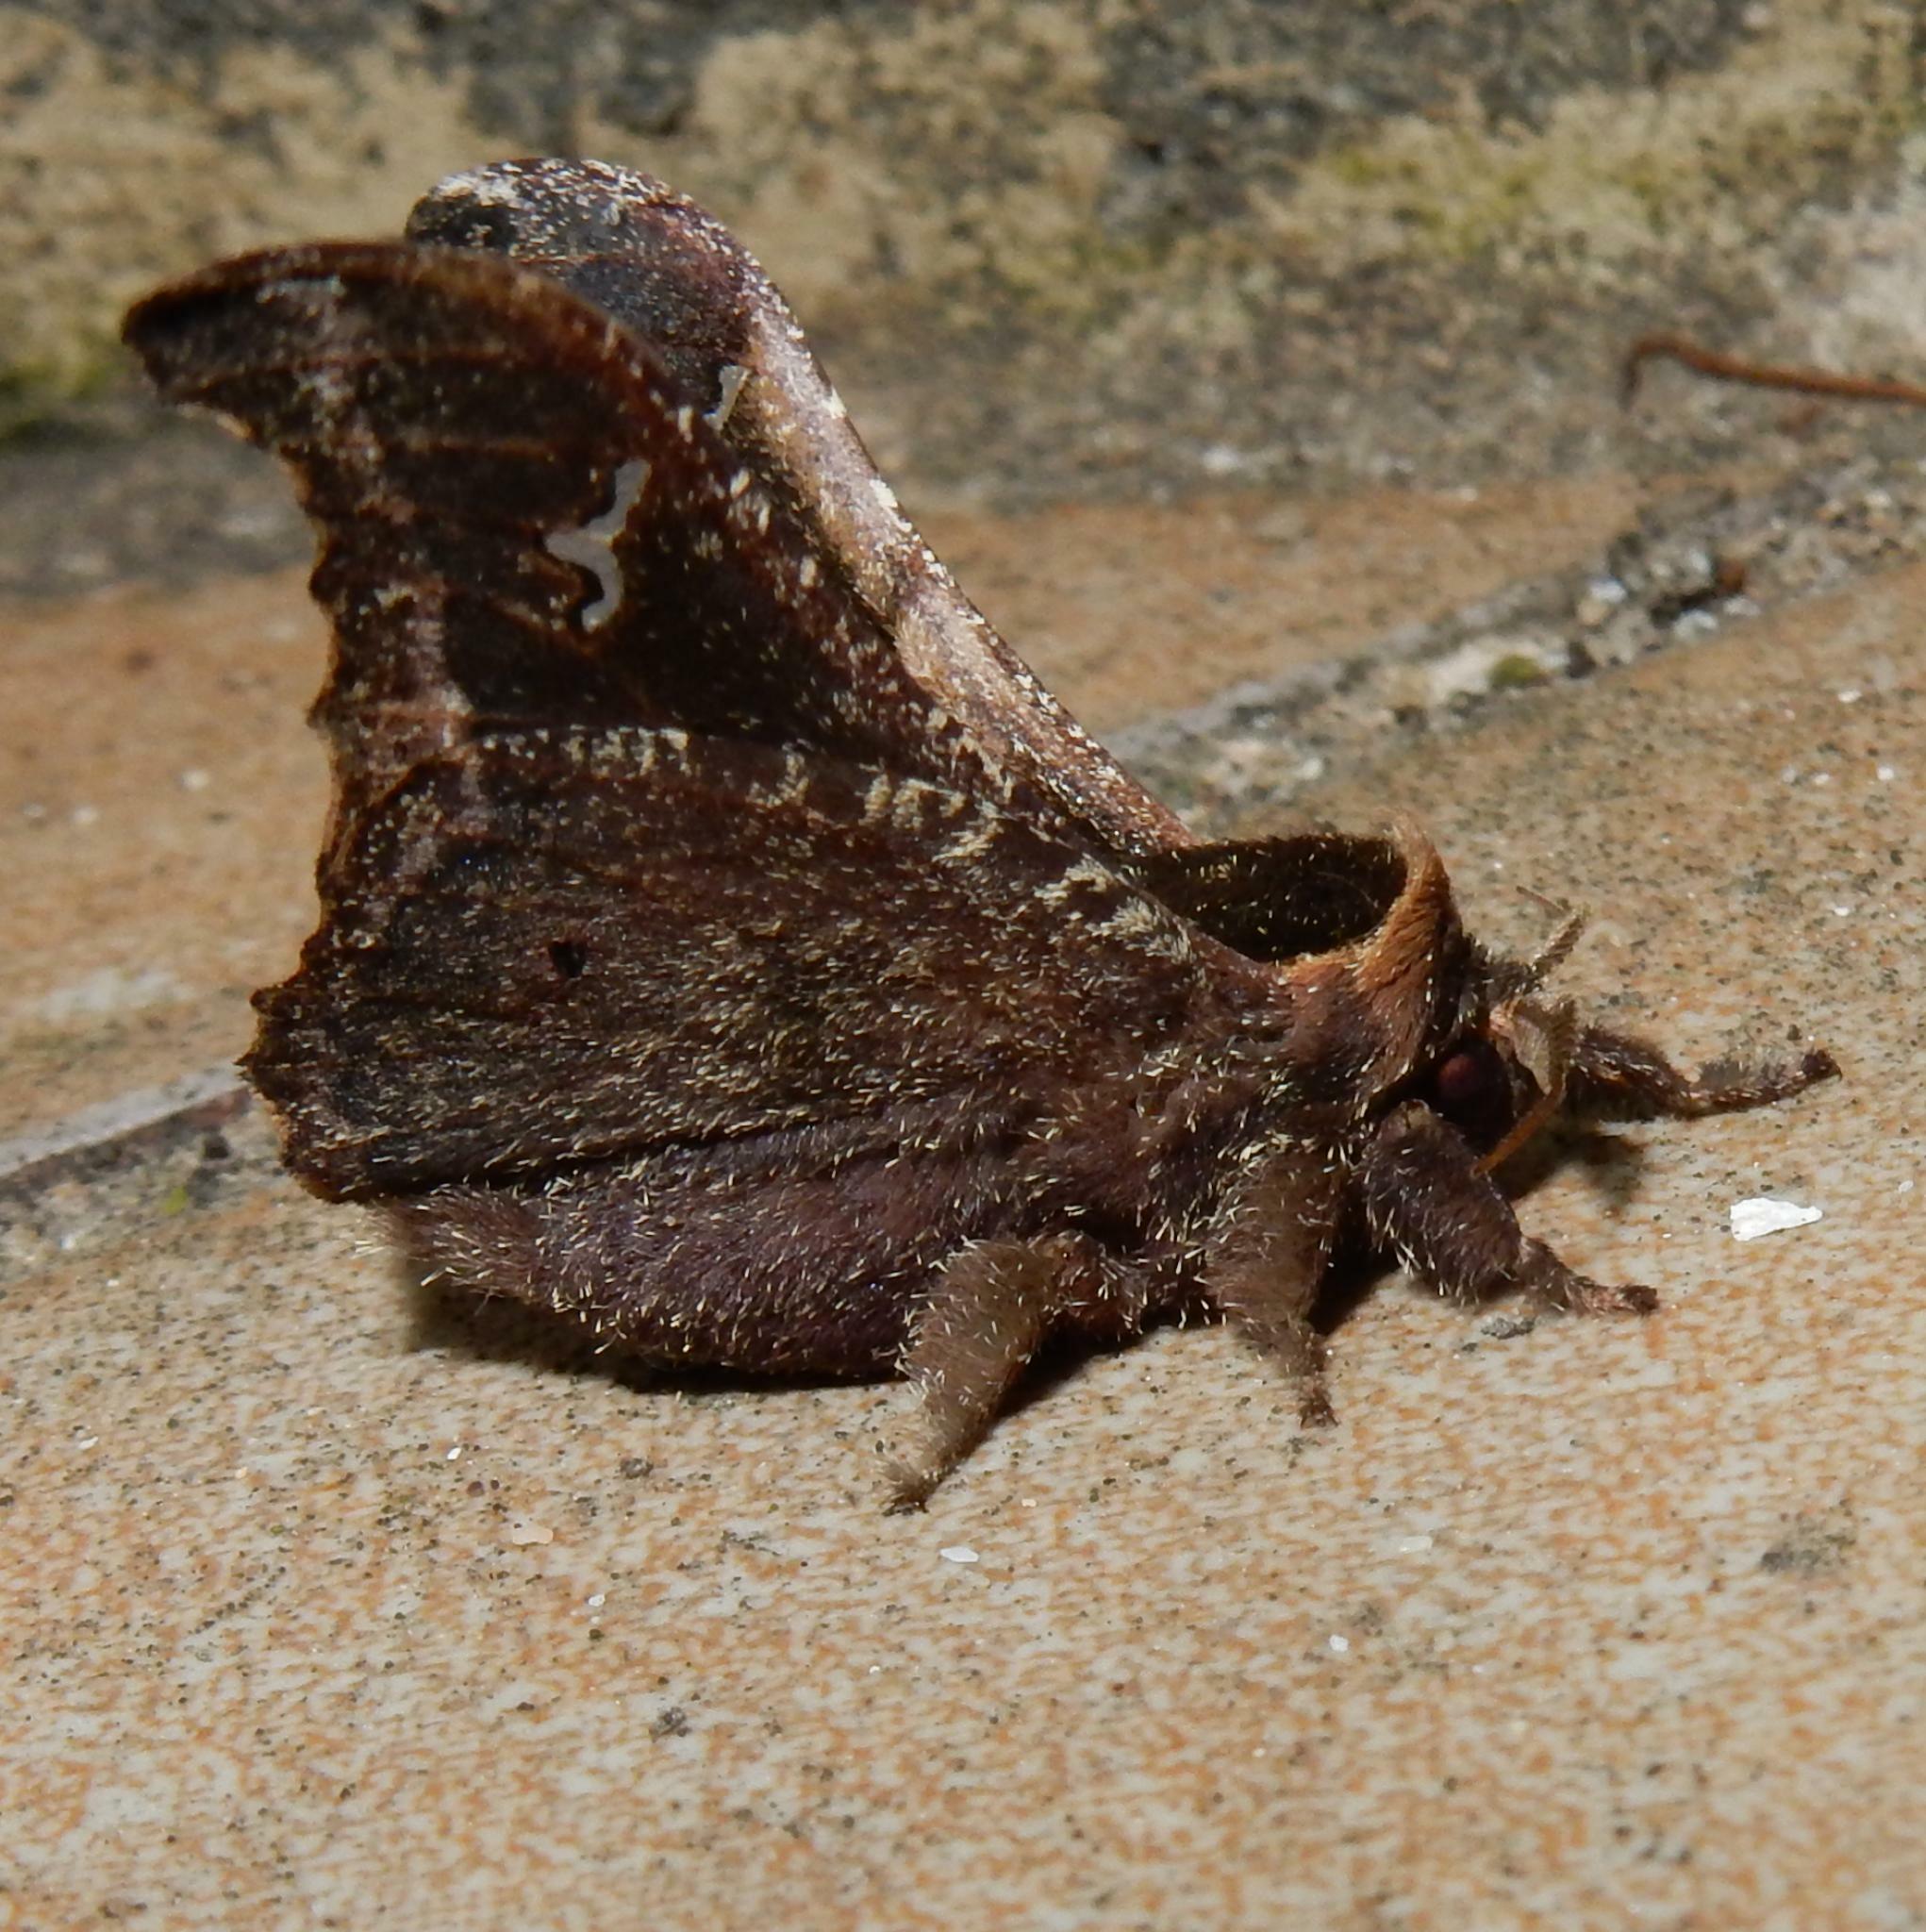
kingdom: Animalia
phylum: Arthropoda
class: Insecta
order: Lepidoptera
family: Saturniidae
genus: Ludia
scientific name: Ludia goniata
